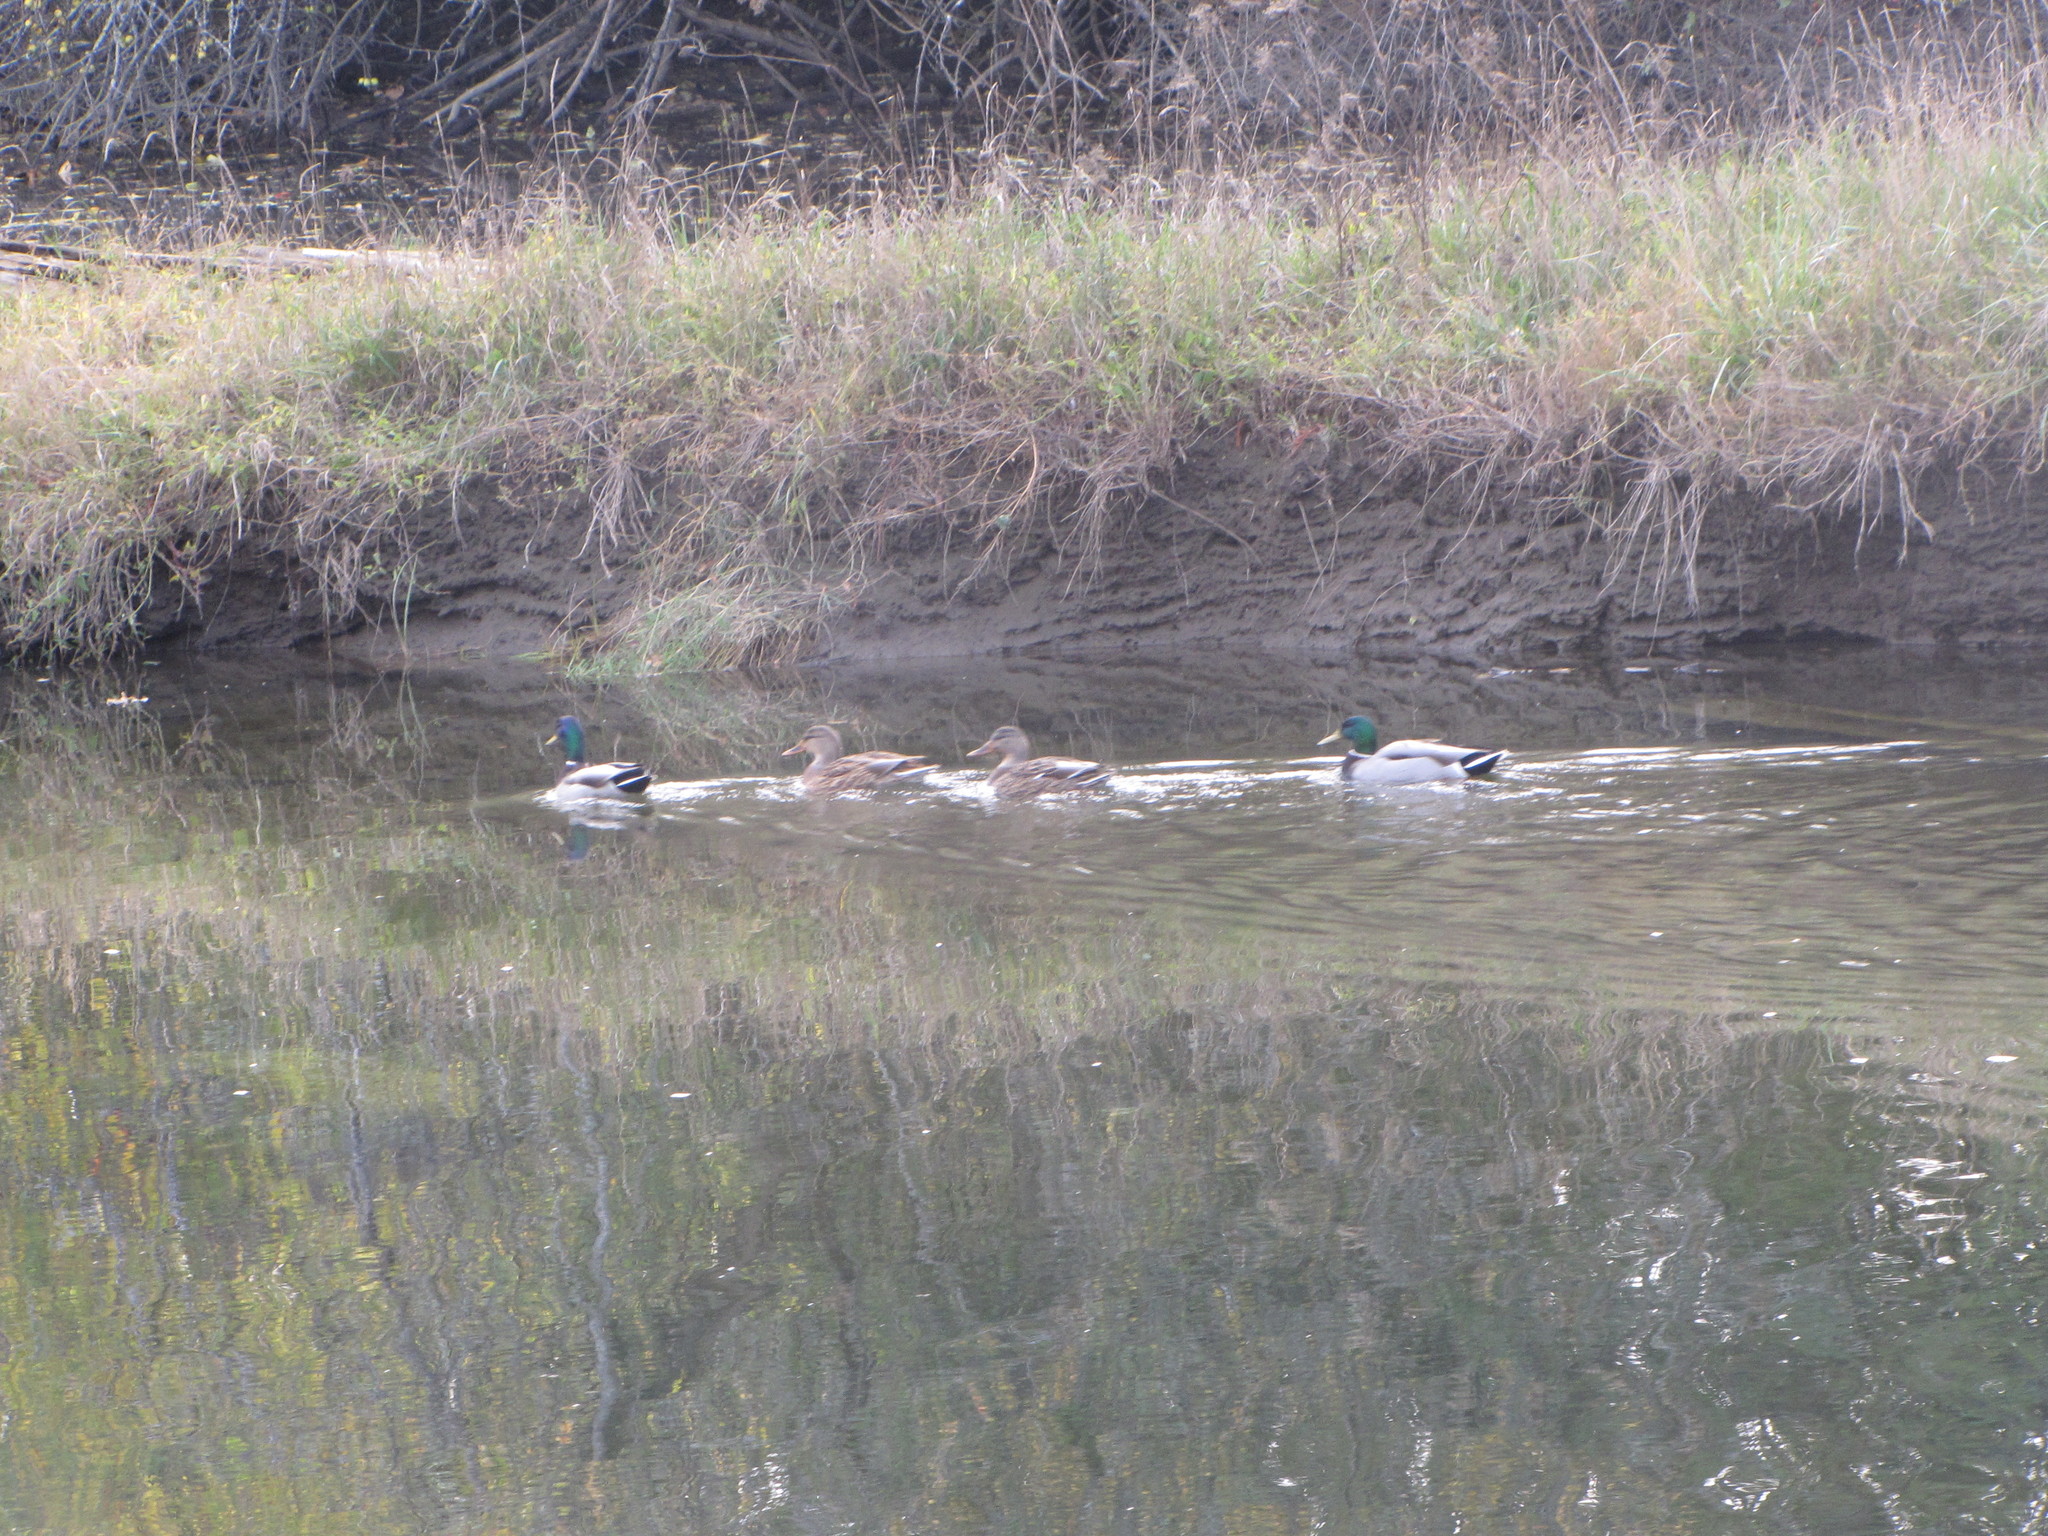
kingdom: Animalia
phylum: Chordata
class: Aves
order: Anseriformes
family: Anatidae
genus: Anas
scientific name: Anas platyrhynchos
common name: Mallard
